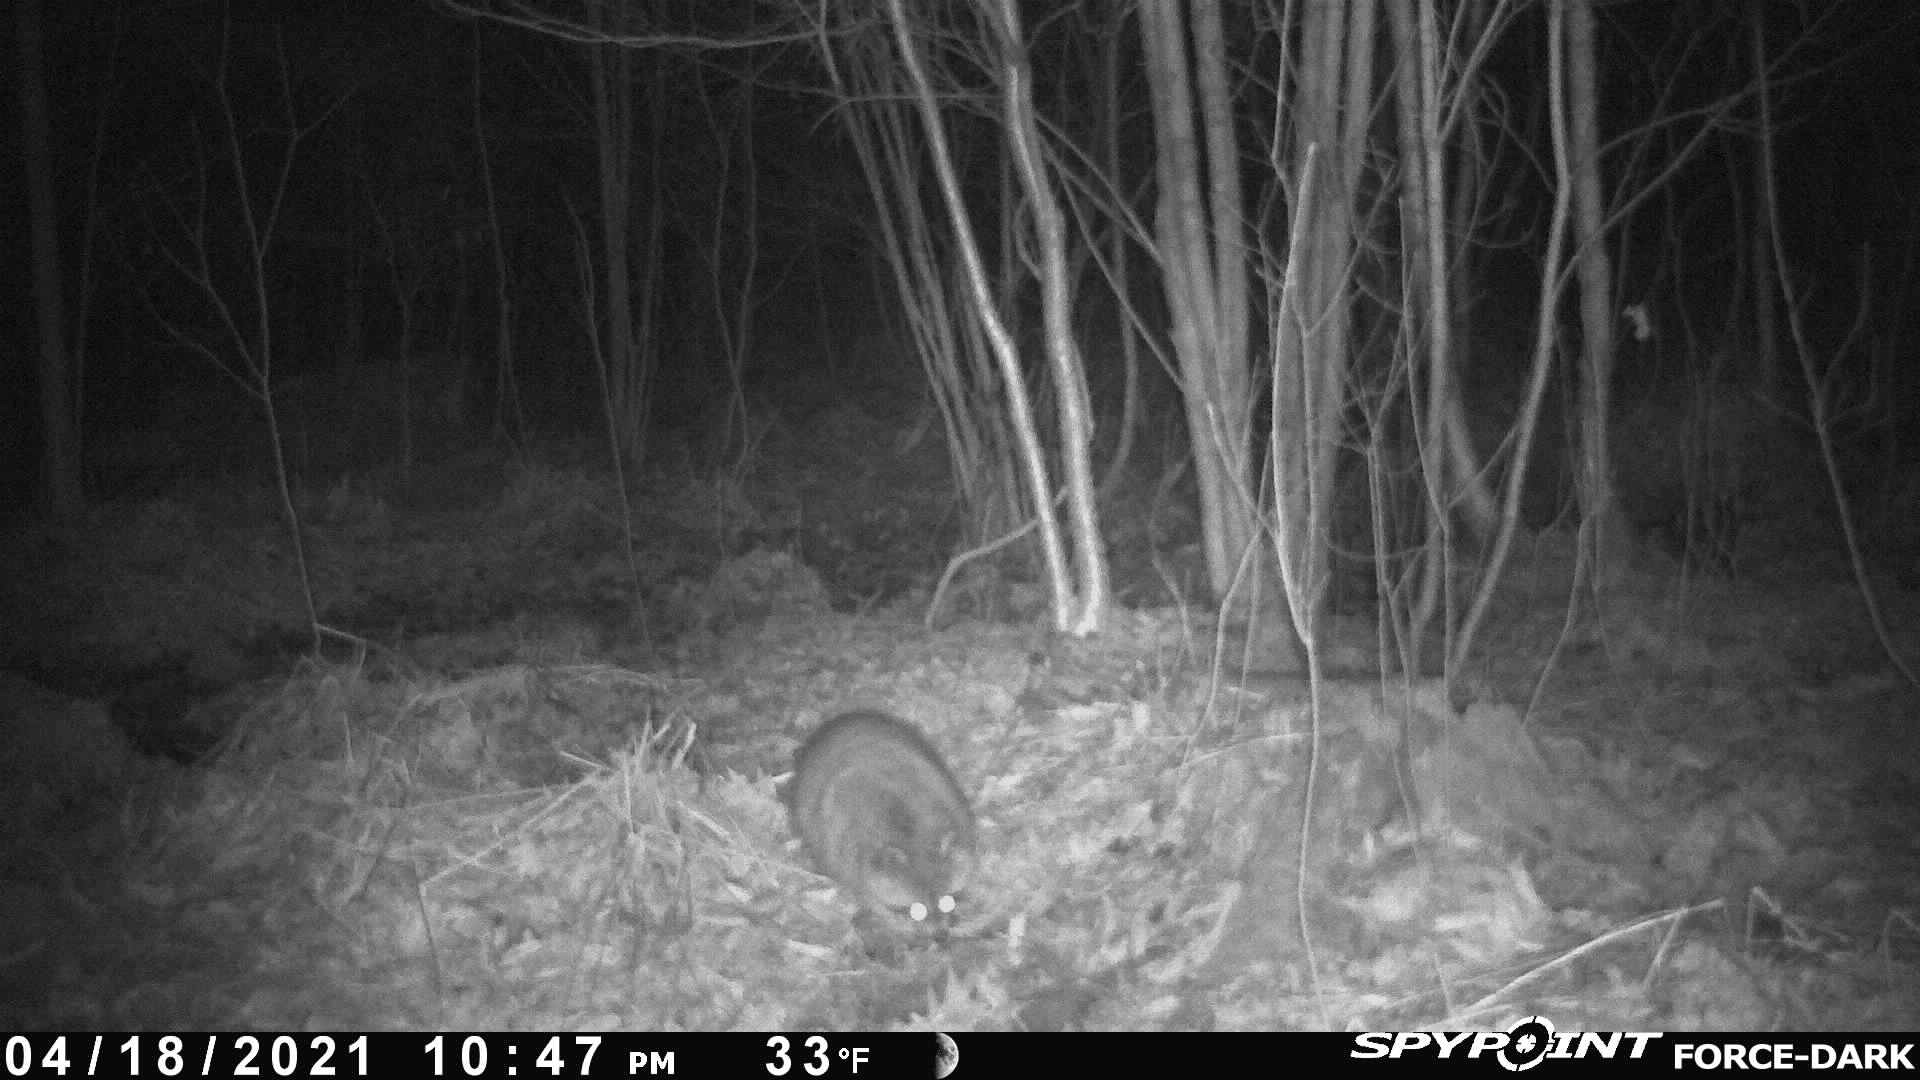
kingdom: Animalia
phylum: Chordata
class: Mammalia
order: Carnivora
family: Procyonidae
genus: Procyon
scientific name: Procyon lotor
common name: Raccoon
